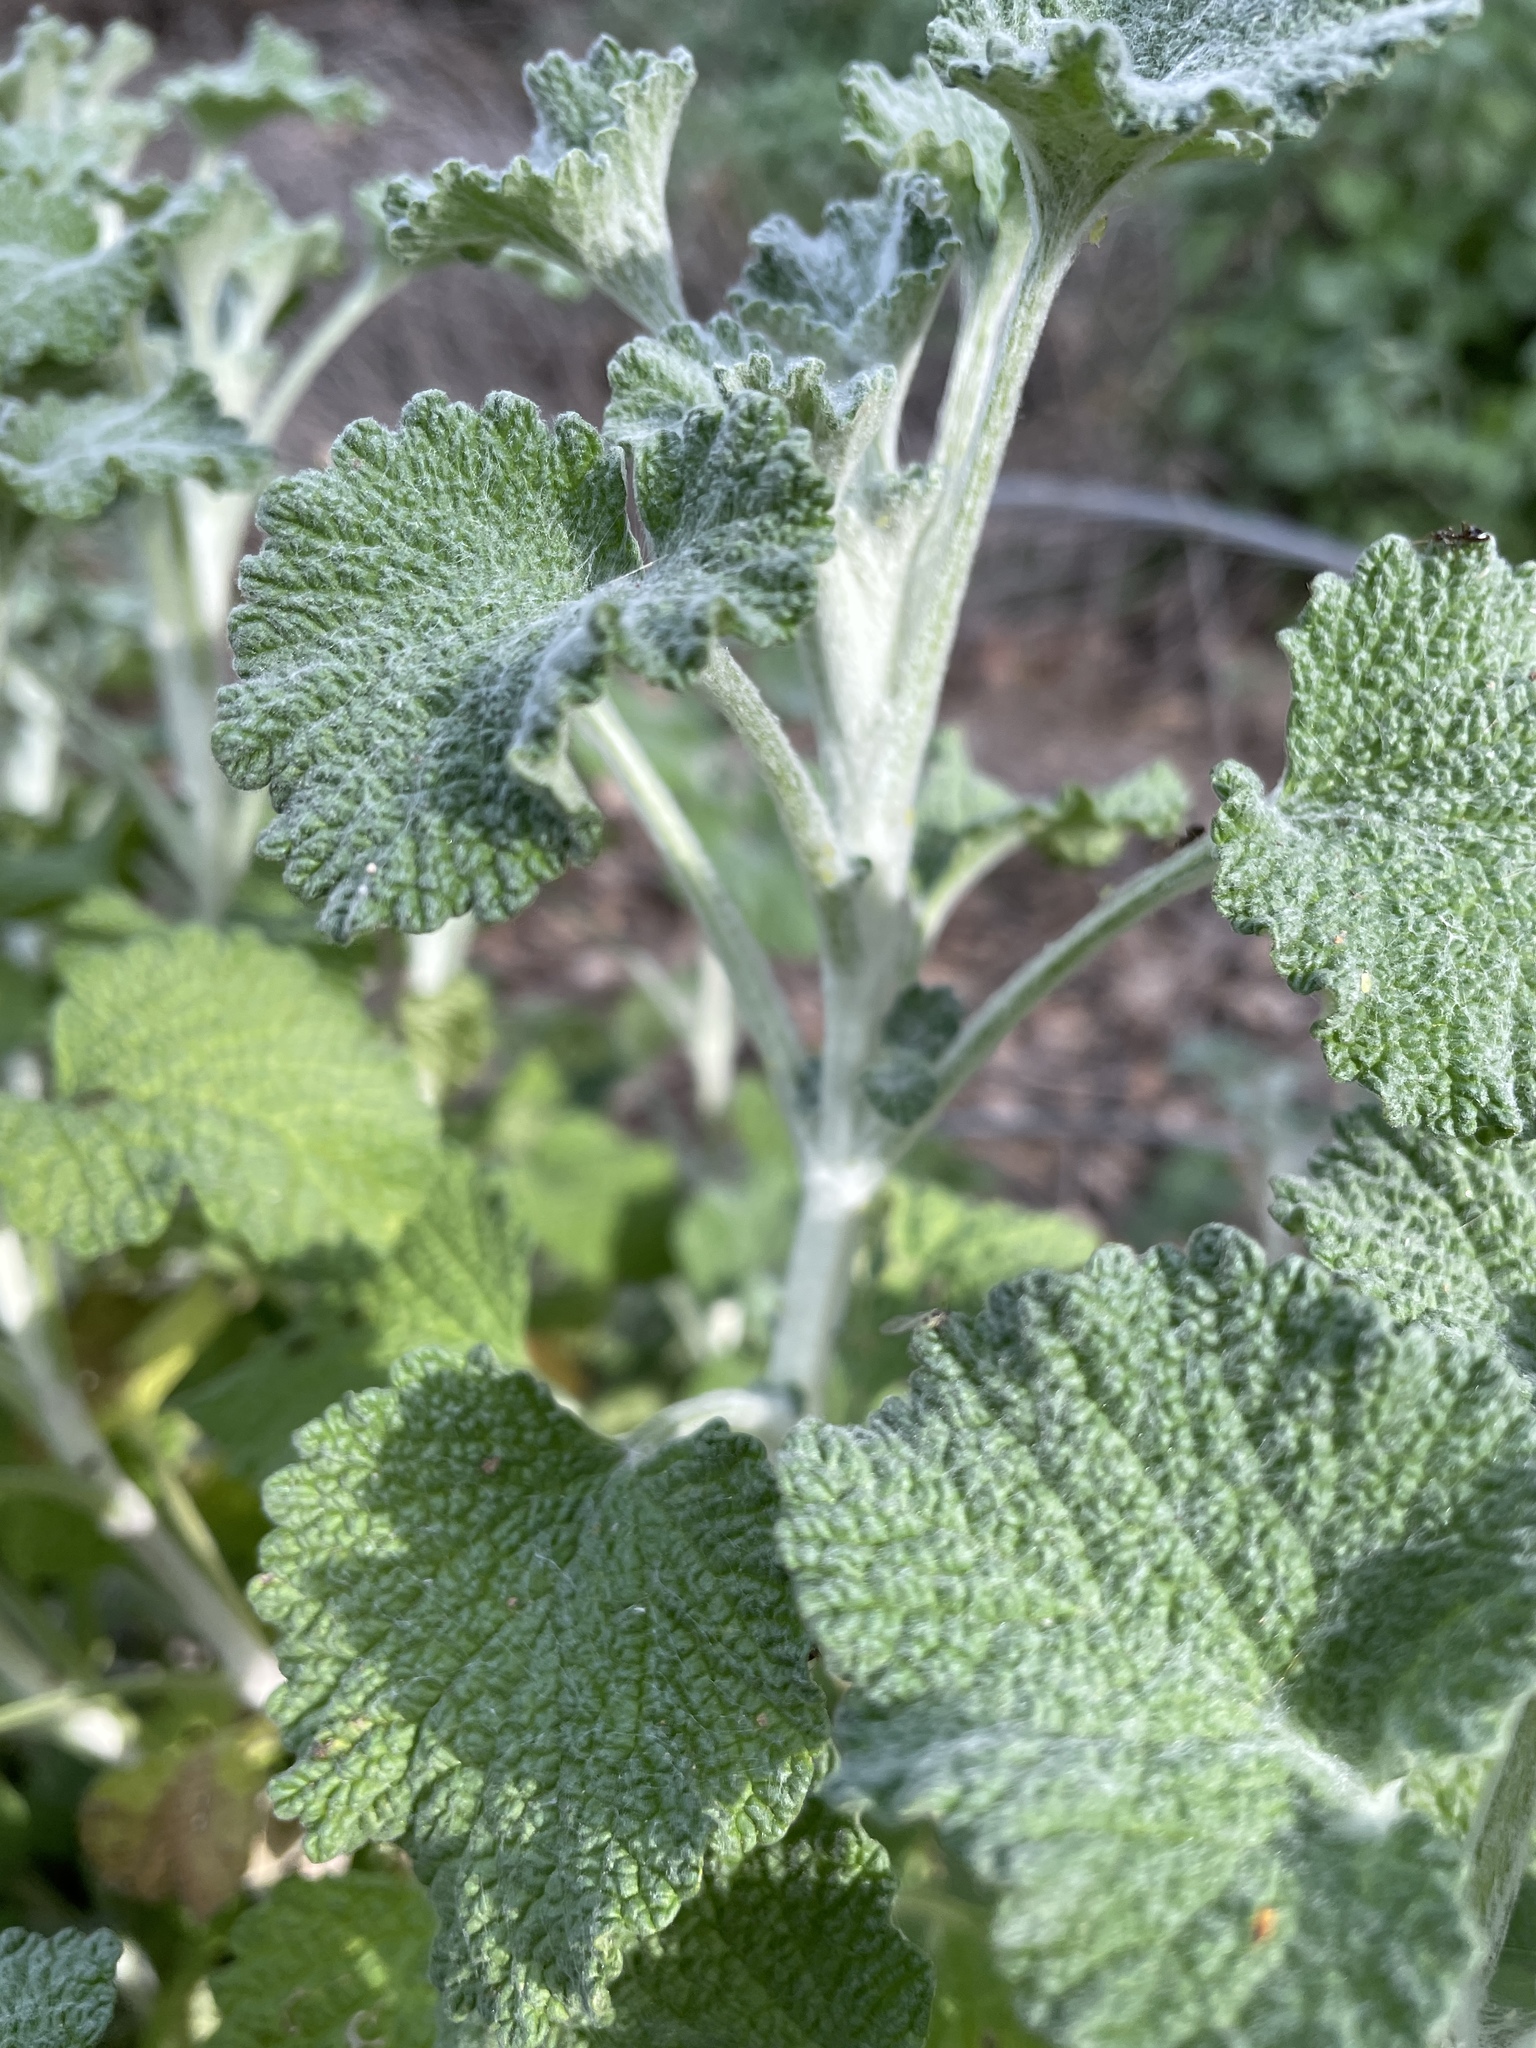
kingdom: Plantae
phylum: Tracheophyta
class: Magnoliopsida
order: Lamiales
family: Lamiaceae
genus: Marrubium
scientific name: Marrubium vulgare
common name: Horehound
